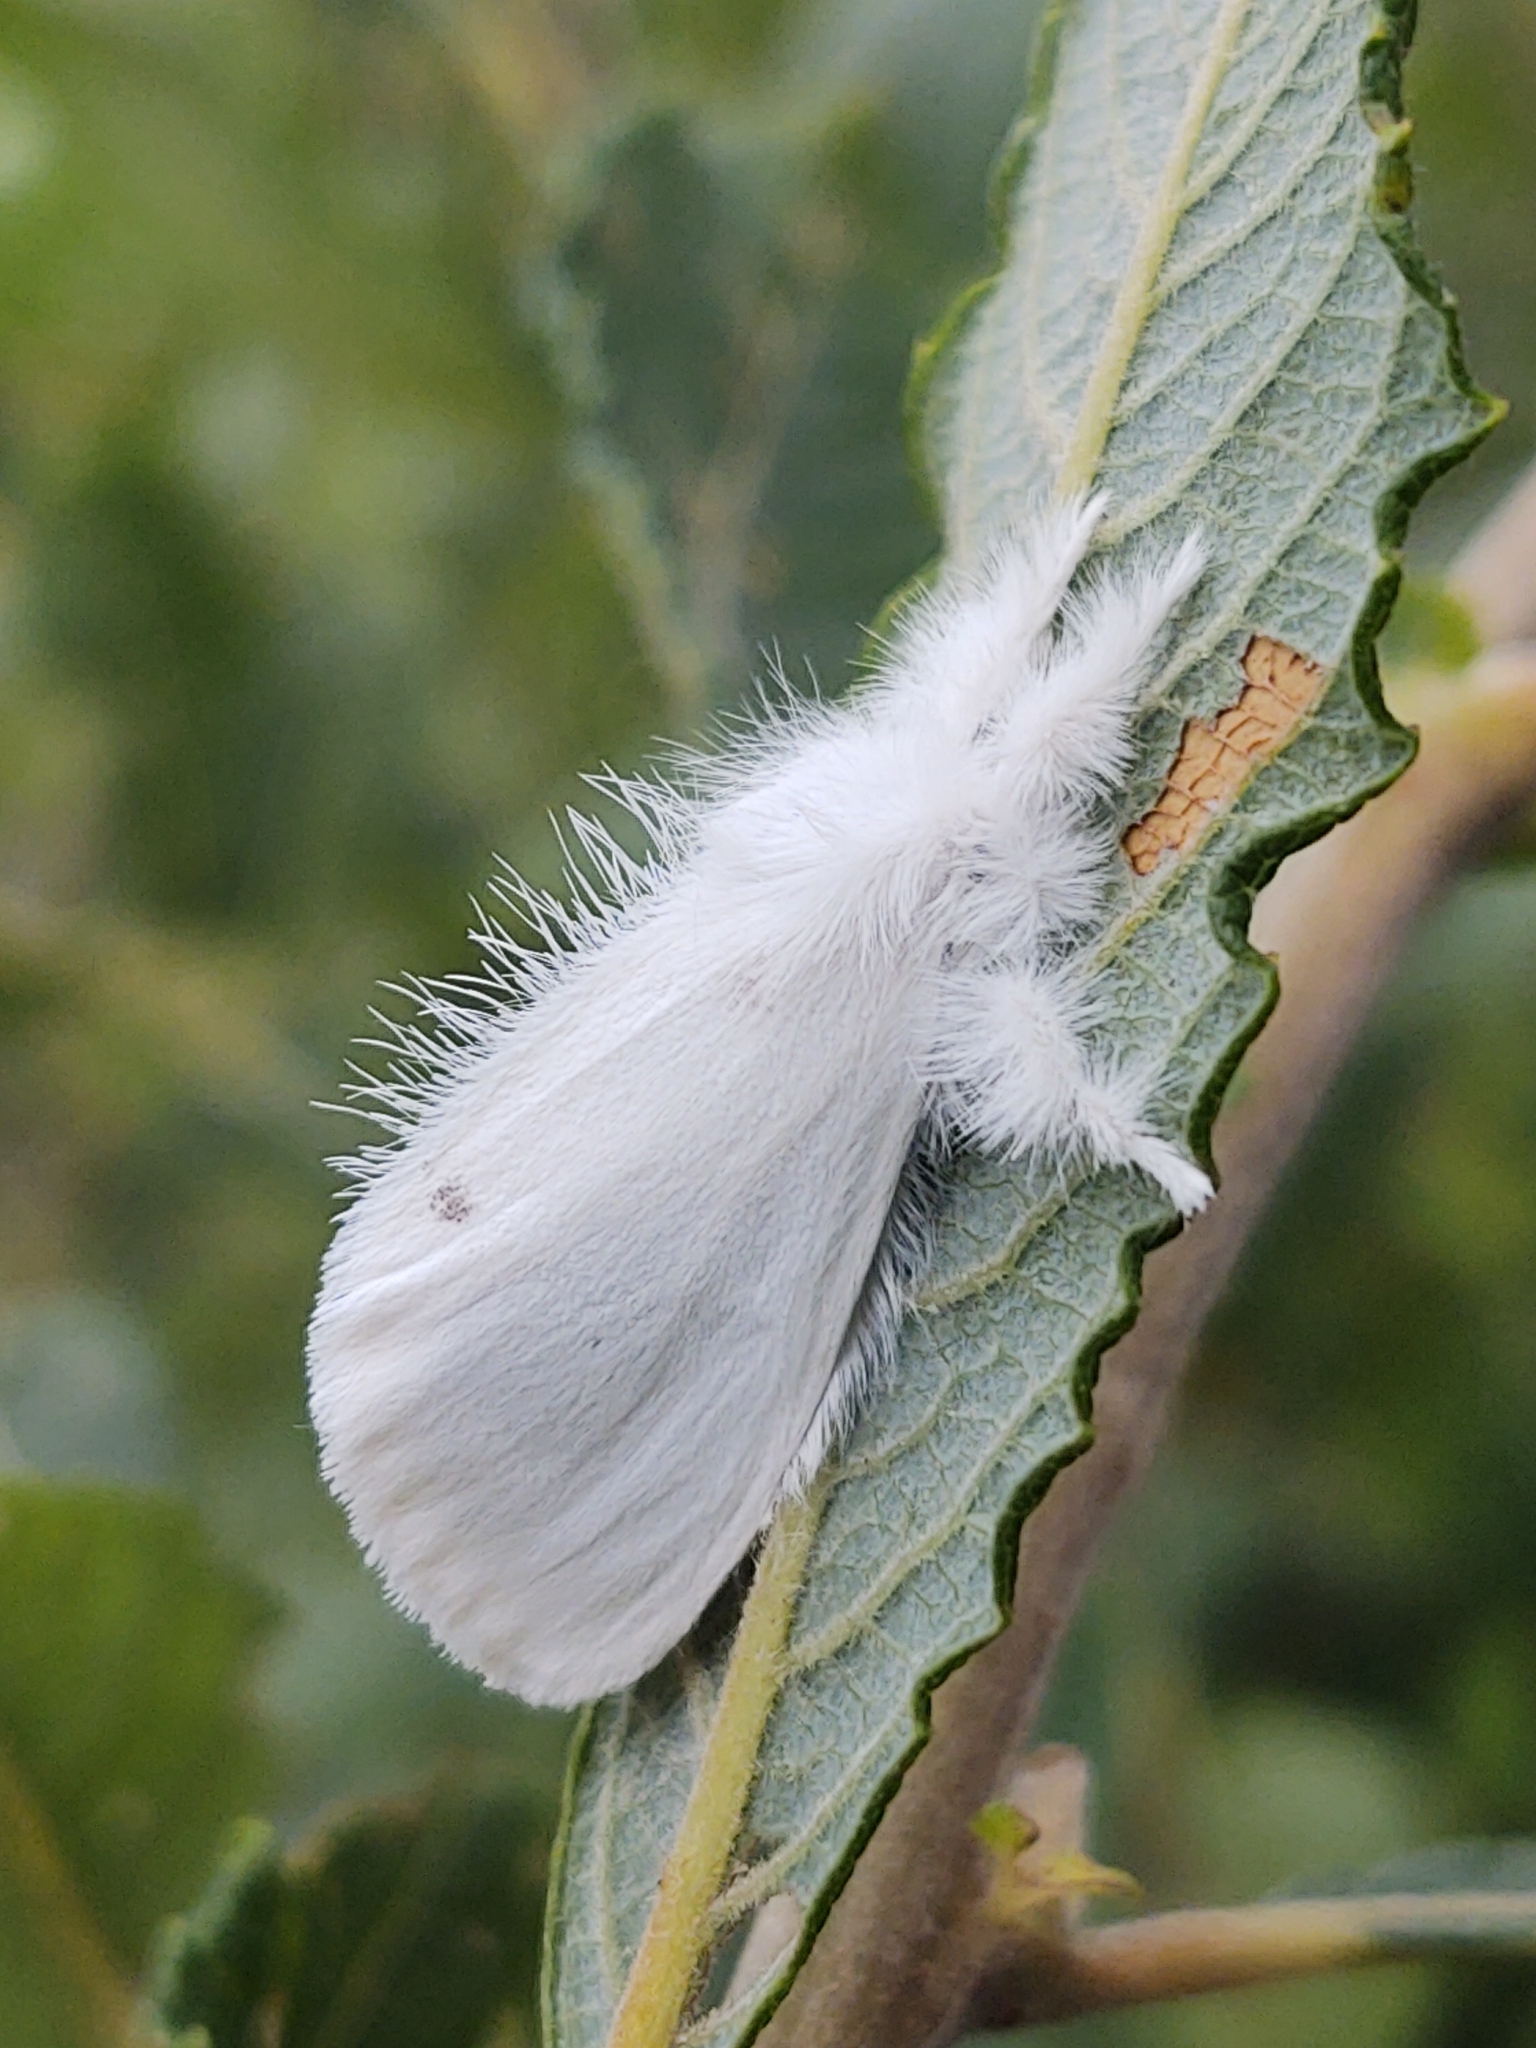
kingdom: Animalia
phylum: Arthropoda
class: Insecta
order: Lepidoptera
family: Erebidae
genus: Sphrageidus
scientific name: Sphrageidus similis
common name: Yellow-tail
